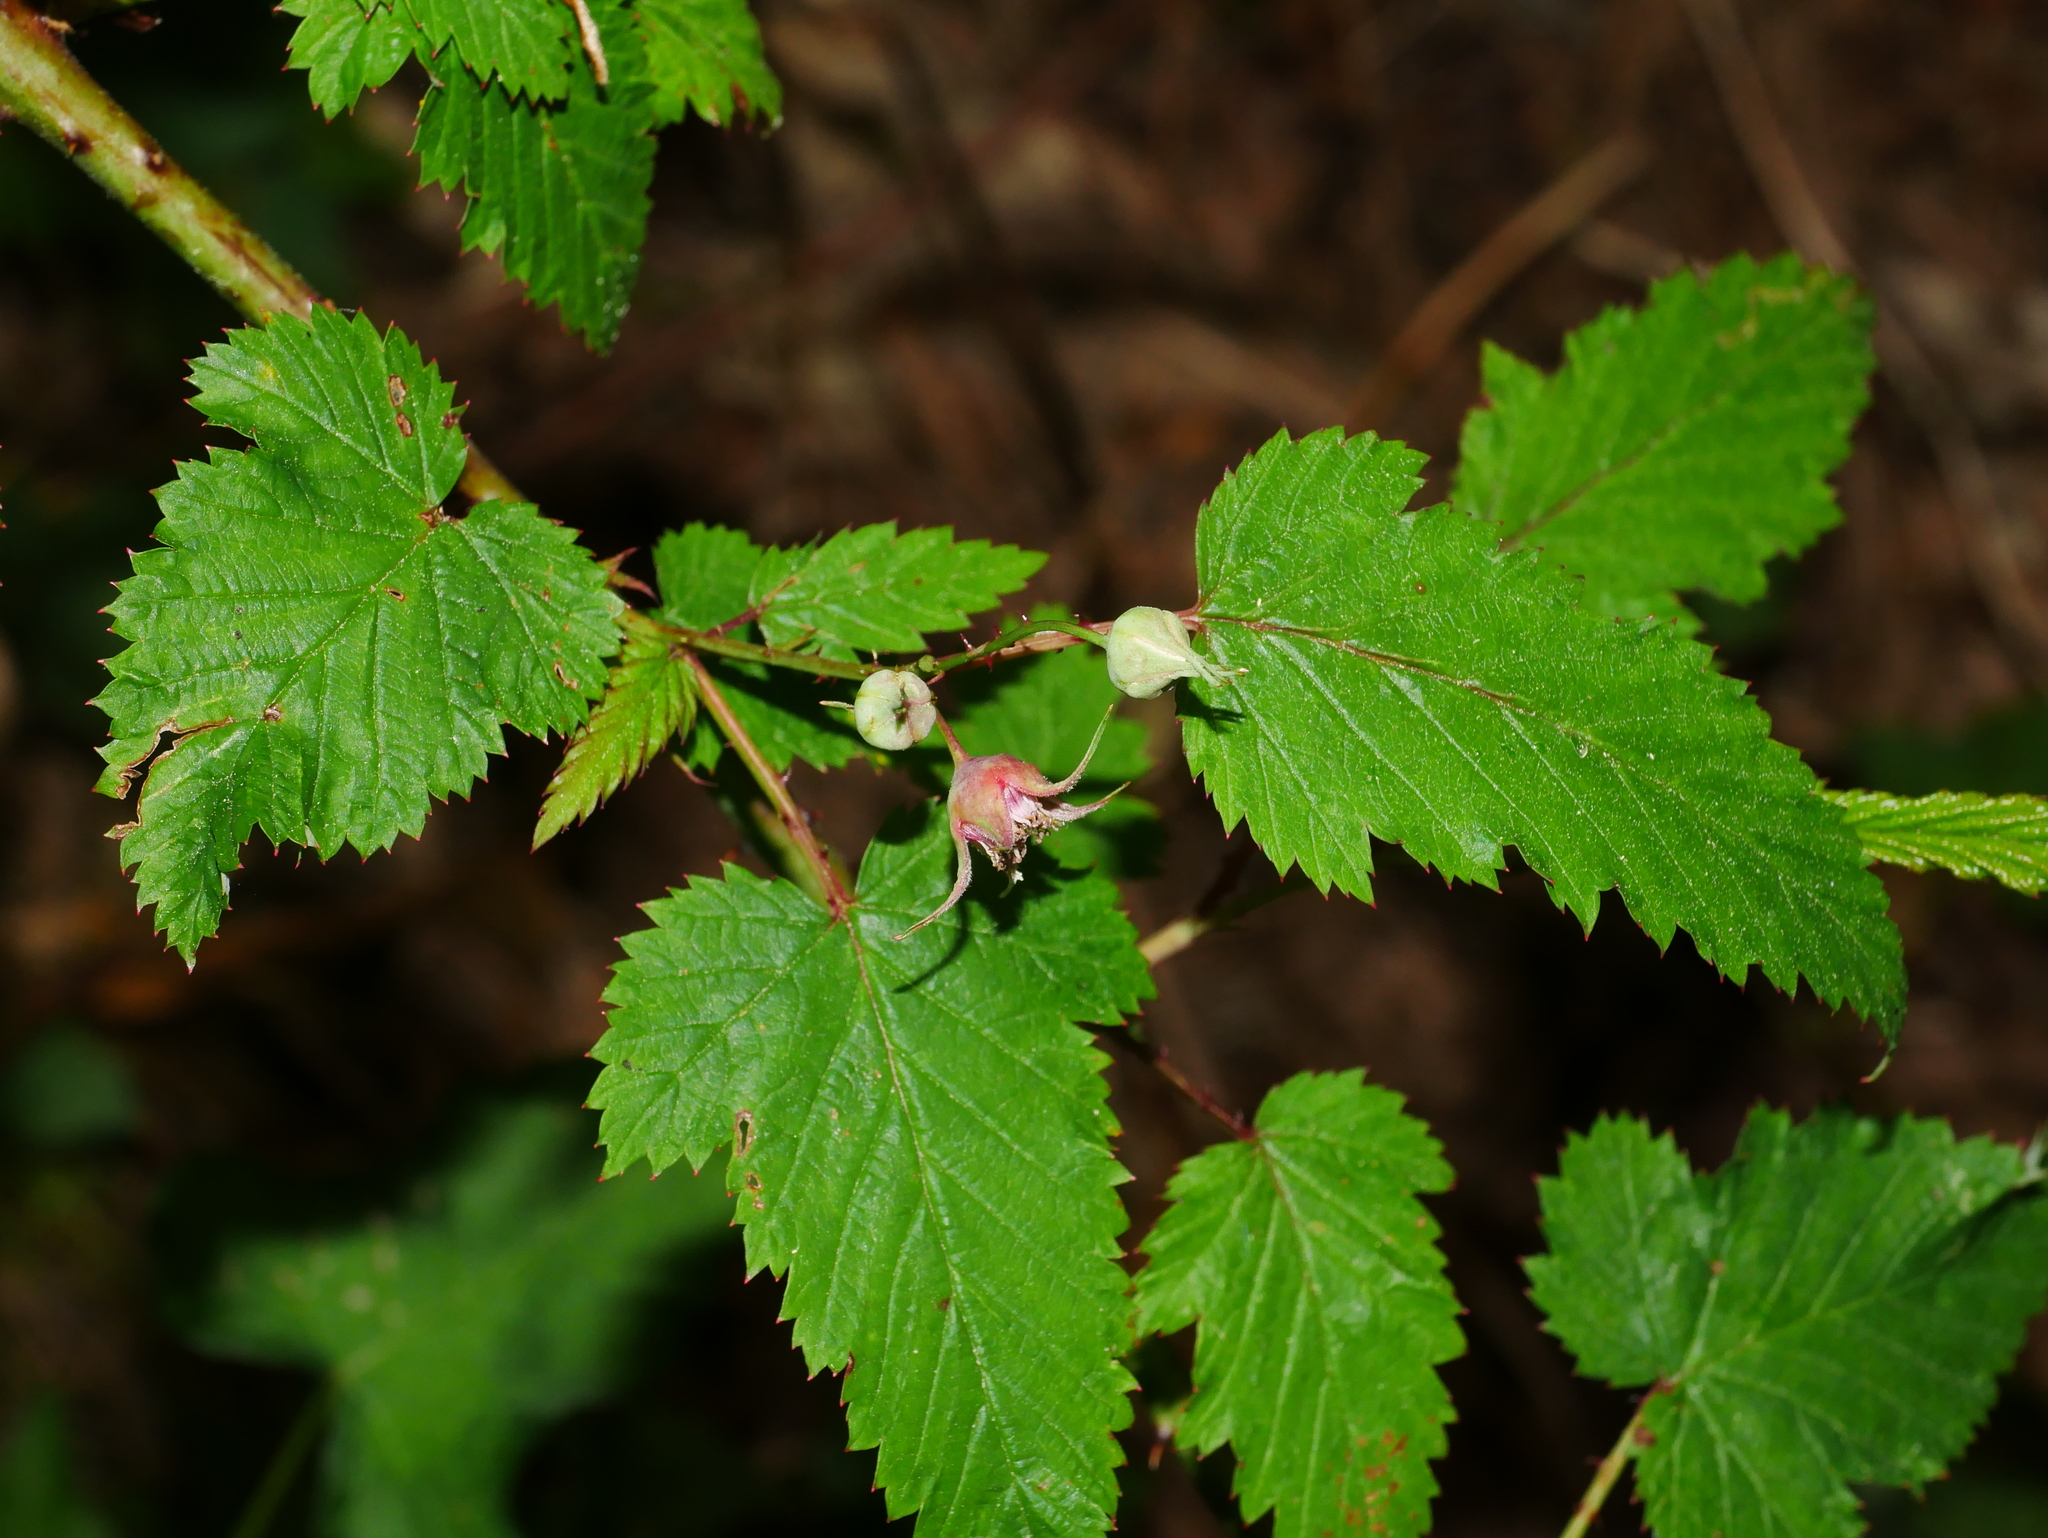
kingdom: Plantae
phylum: Tracheophyta
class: Magnoliopsida
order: Rosales
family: Rosaceae
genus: Rubus
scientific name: Rubus subcrataegifolius
